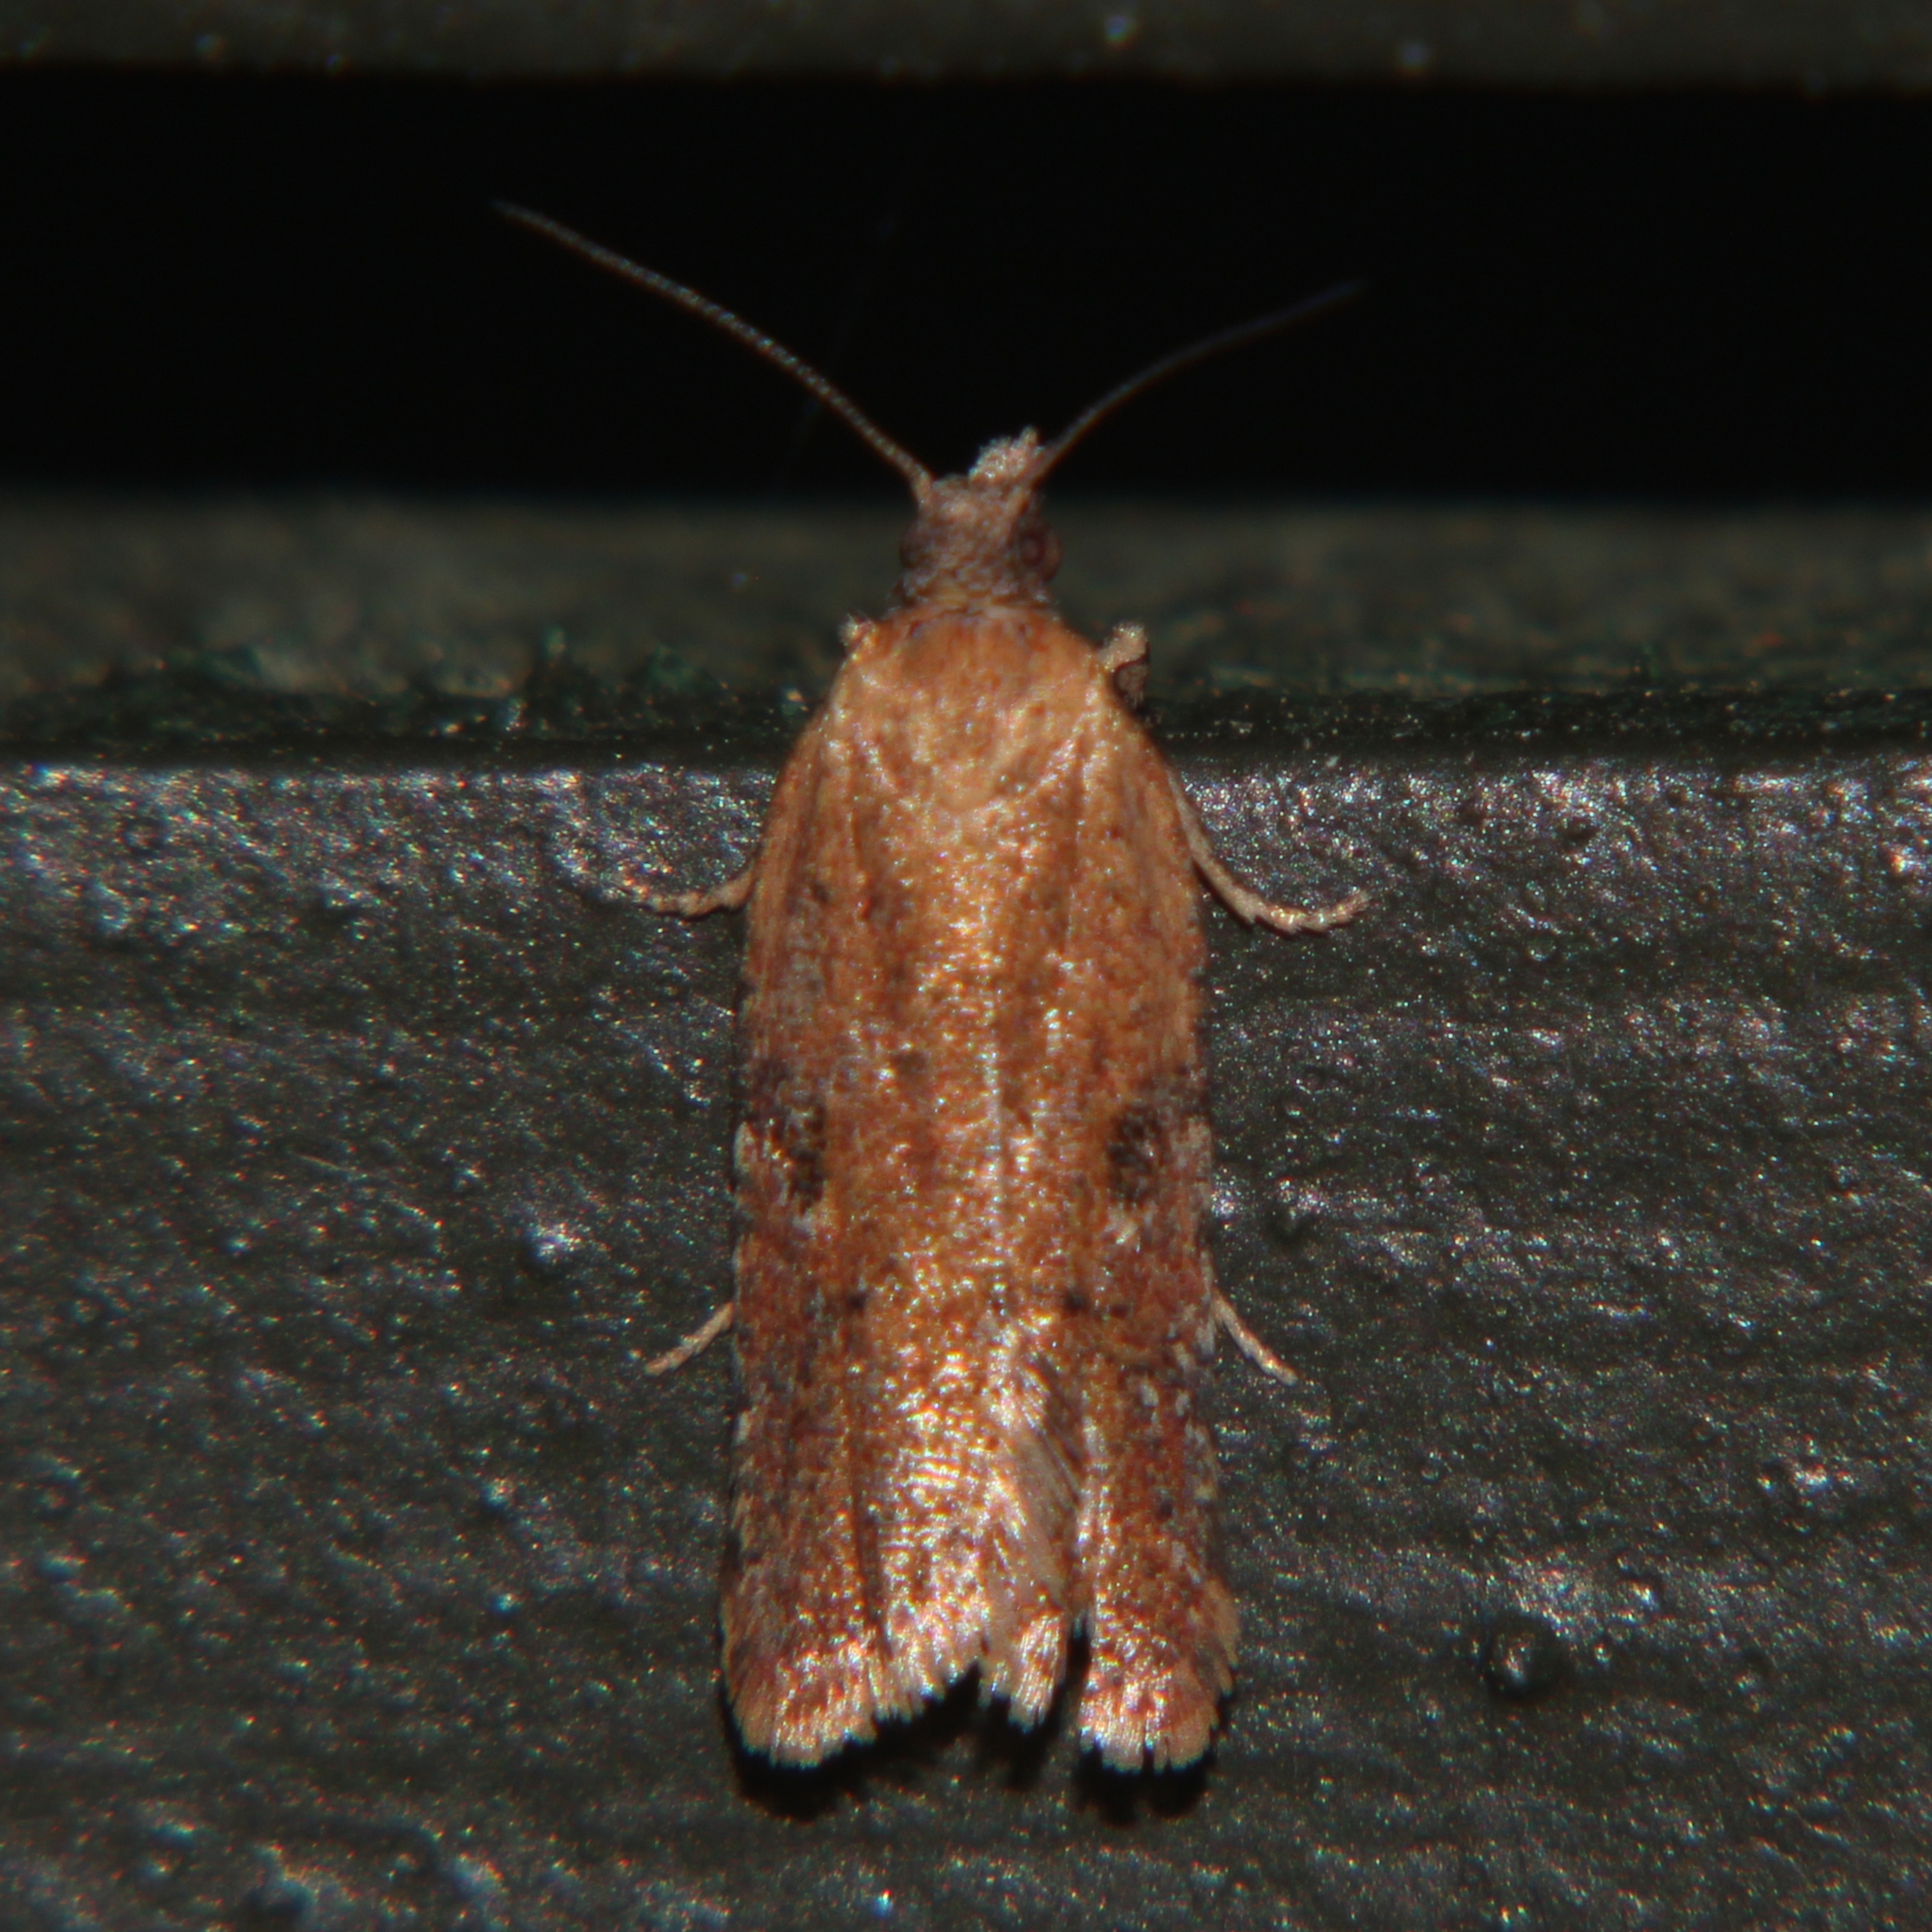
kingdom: Animalia
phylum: Arthropoda
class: Insecta
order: Lepidoptera
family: Tortricidae
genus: Capua
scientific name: Capua semiferana
